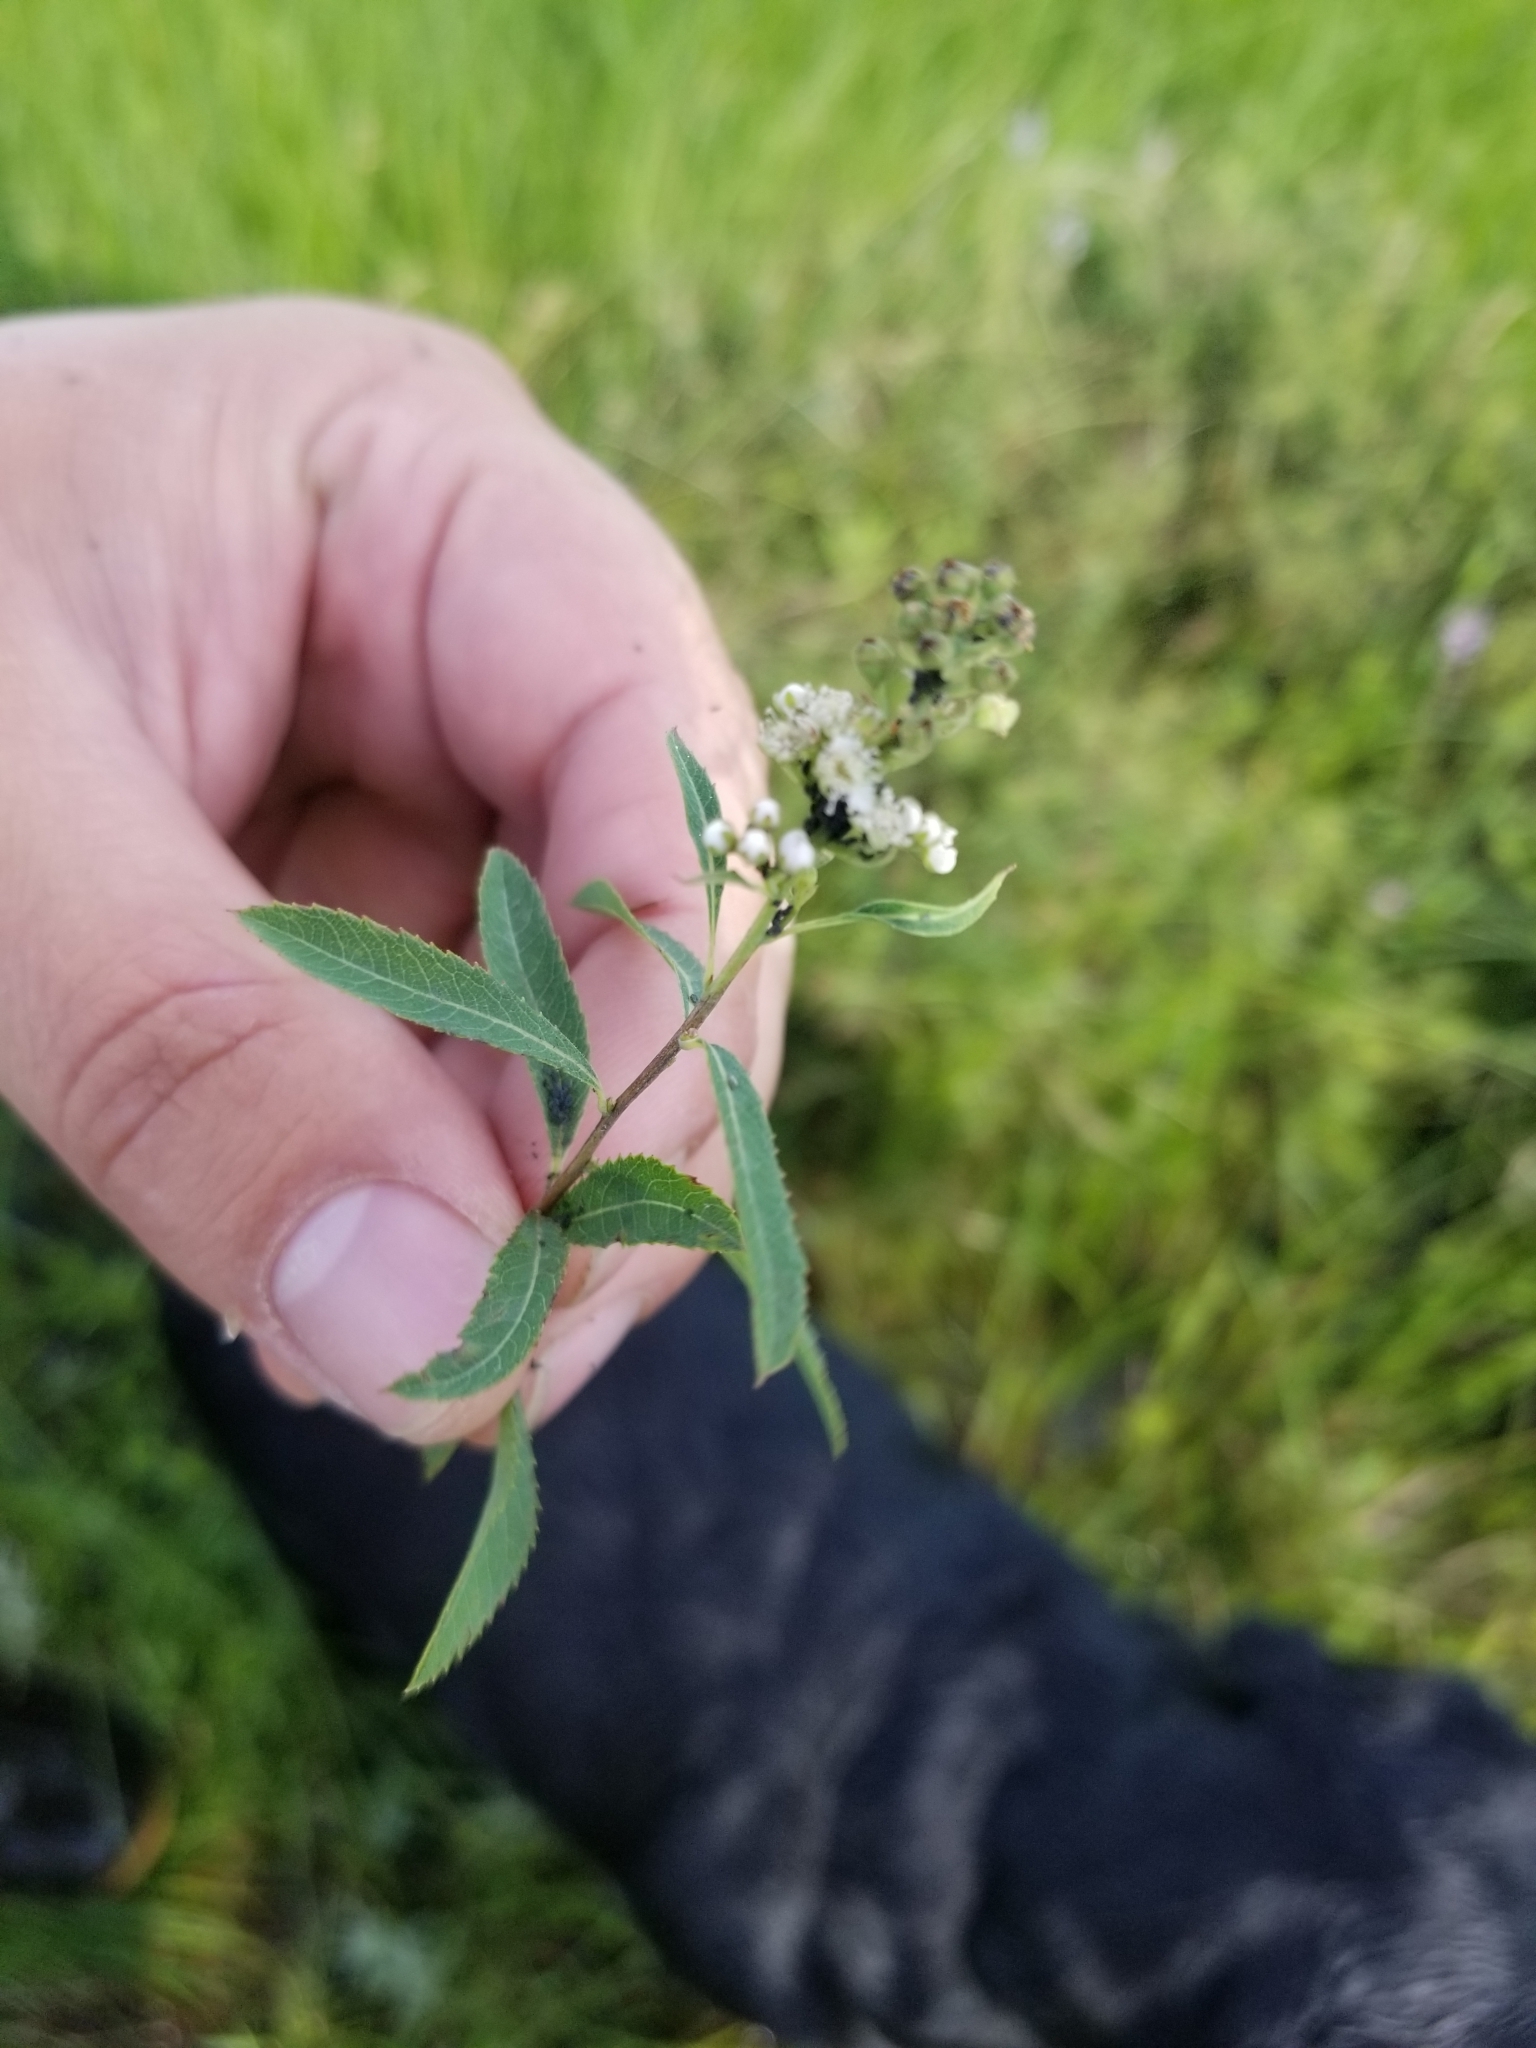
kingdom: Plantae
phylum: Tracheophyta
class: Magnoliopsida
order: Rosales
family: Rosaceae
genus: Spiraea
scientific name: Spiraea alba
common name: Pale bridewort
